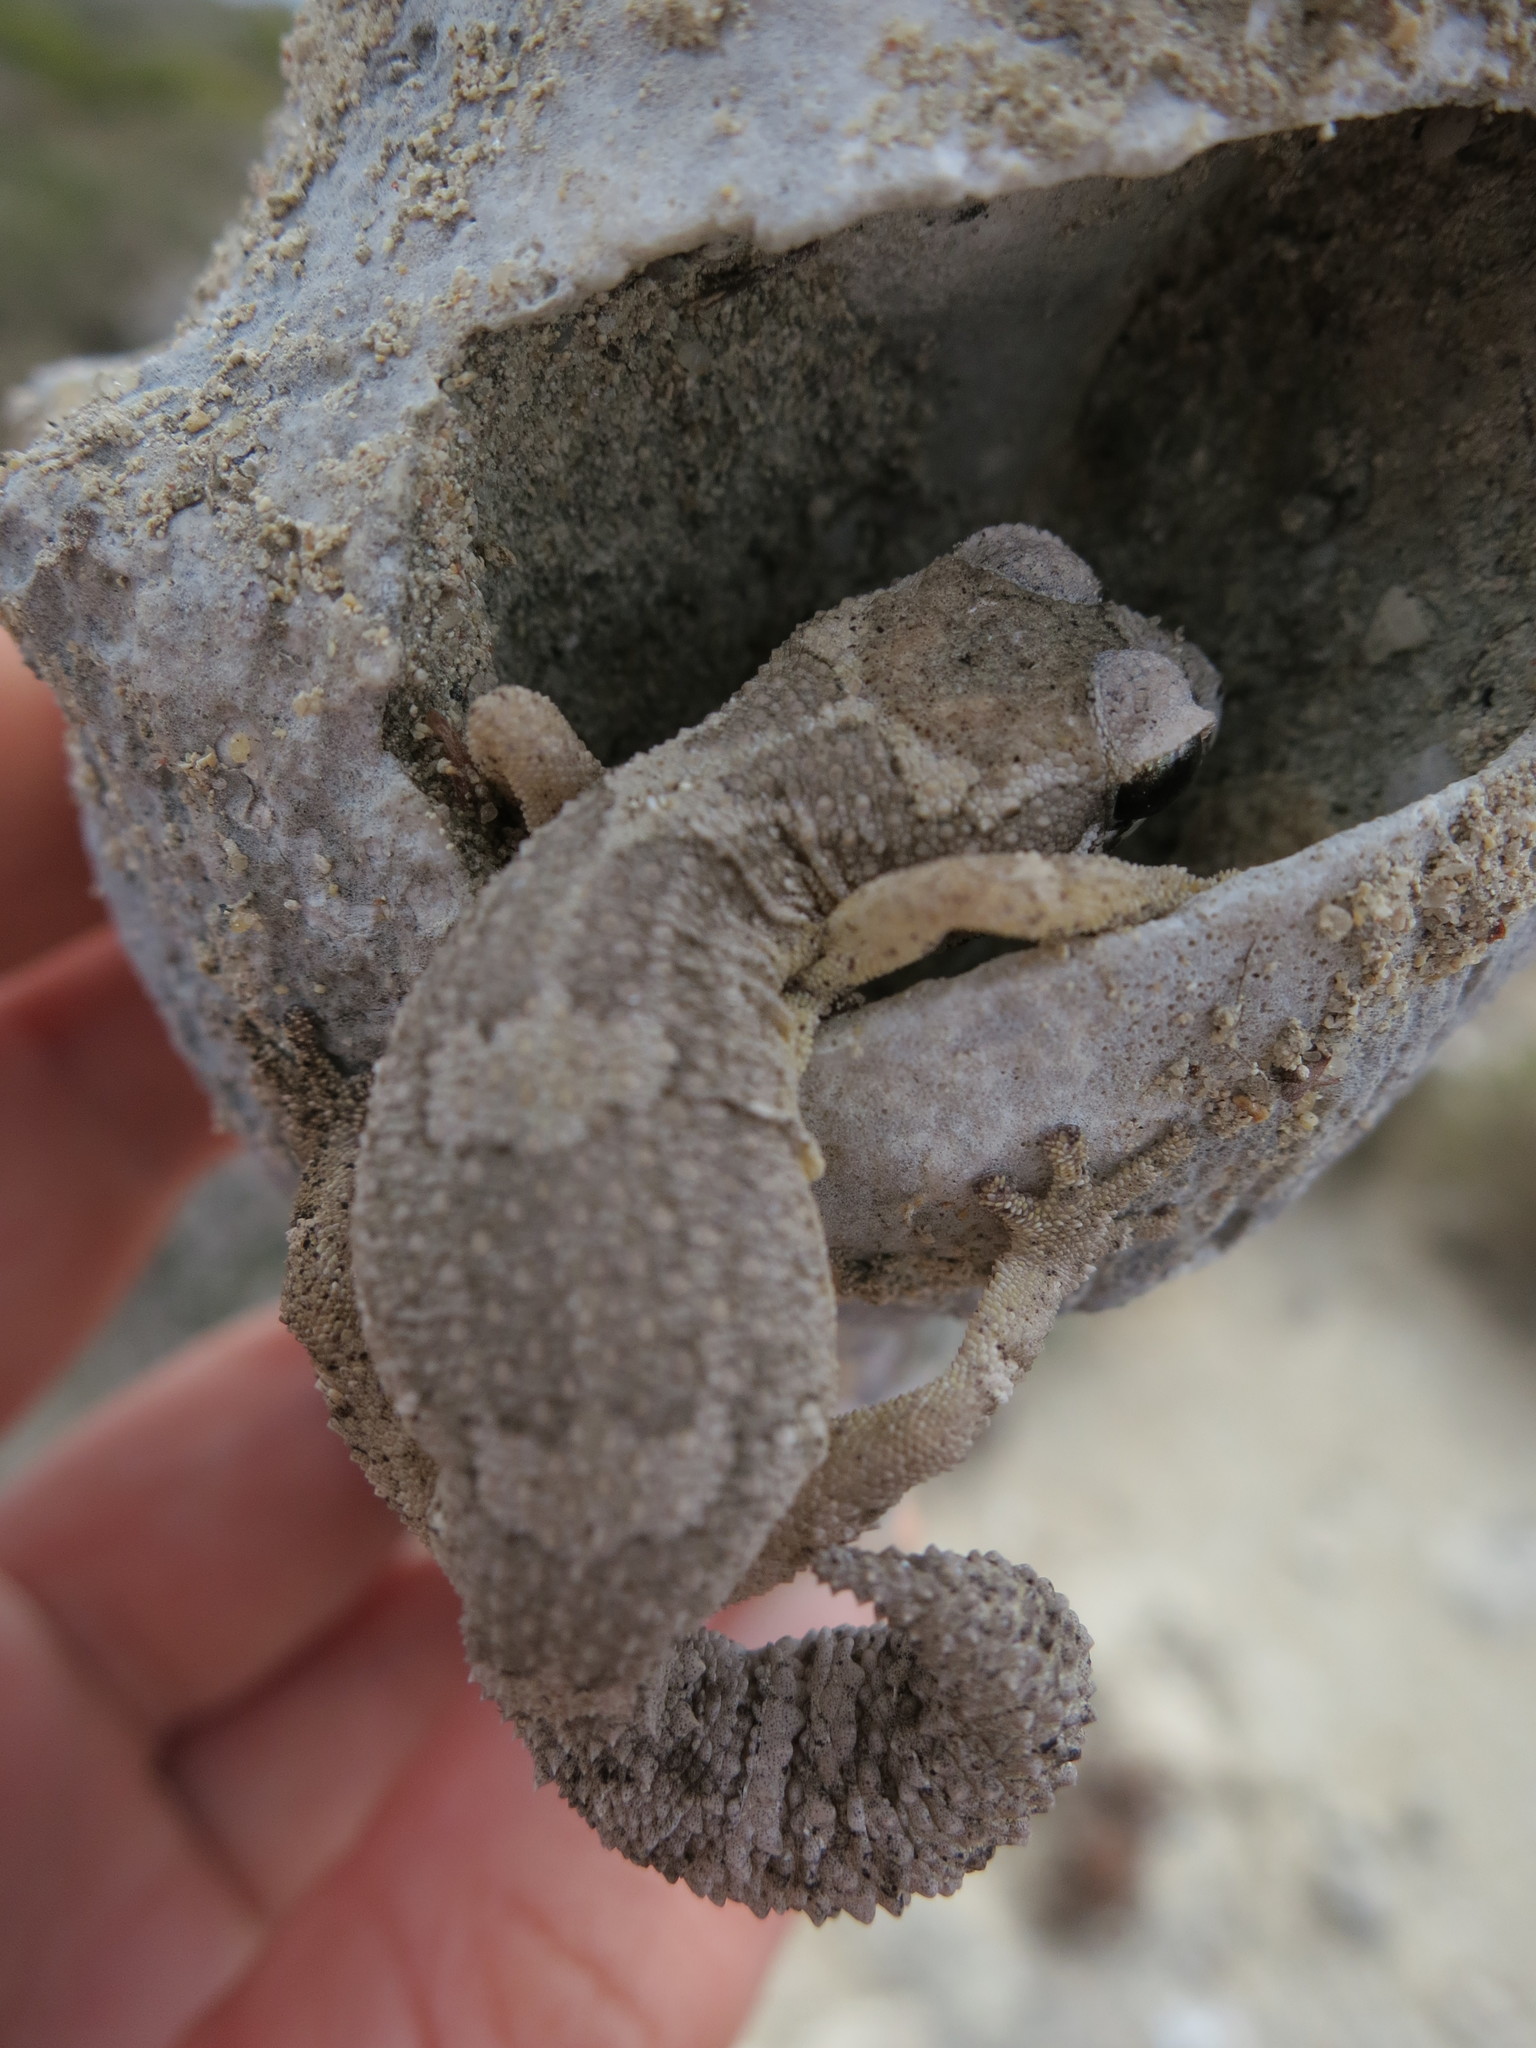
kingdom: Animalia
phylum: Chordata
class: Squamata
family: Gekkonidae
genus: Paroedura
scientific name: Paroedura androyensis
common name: Grandidier's madagascar ground gecko
